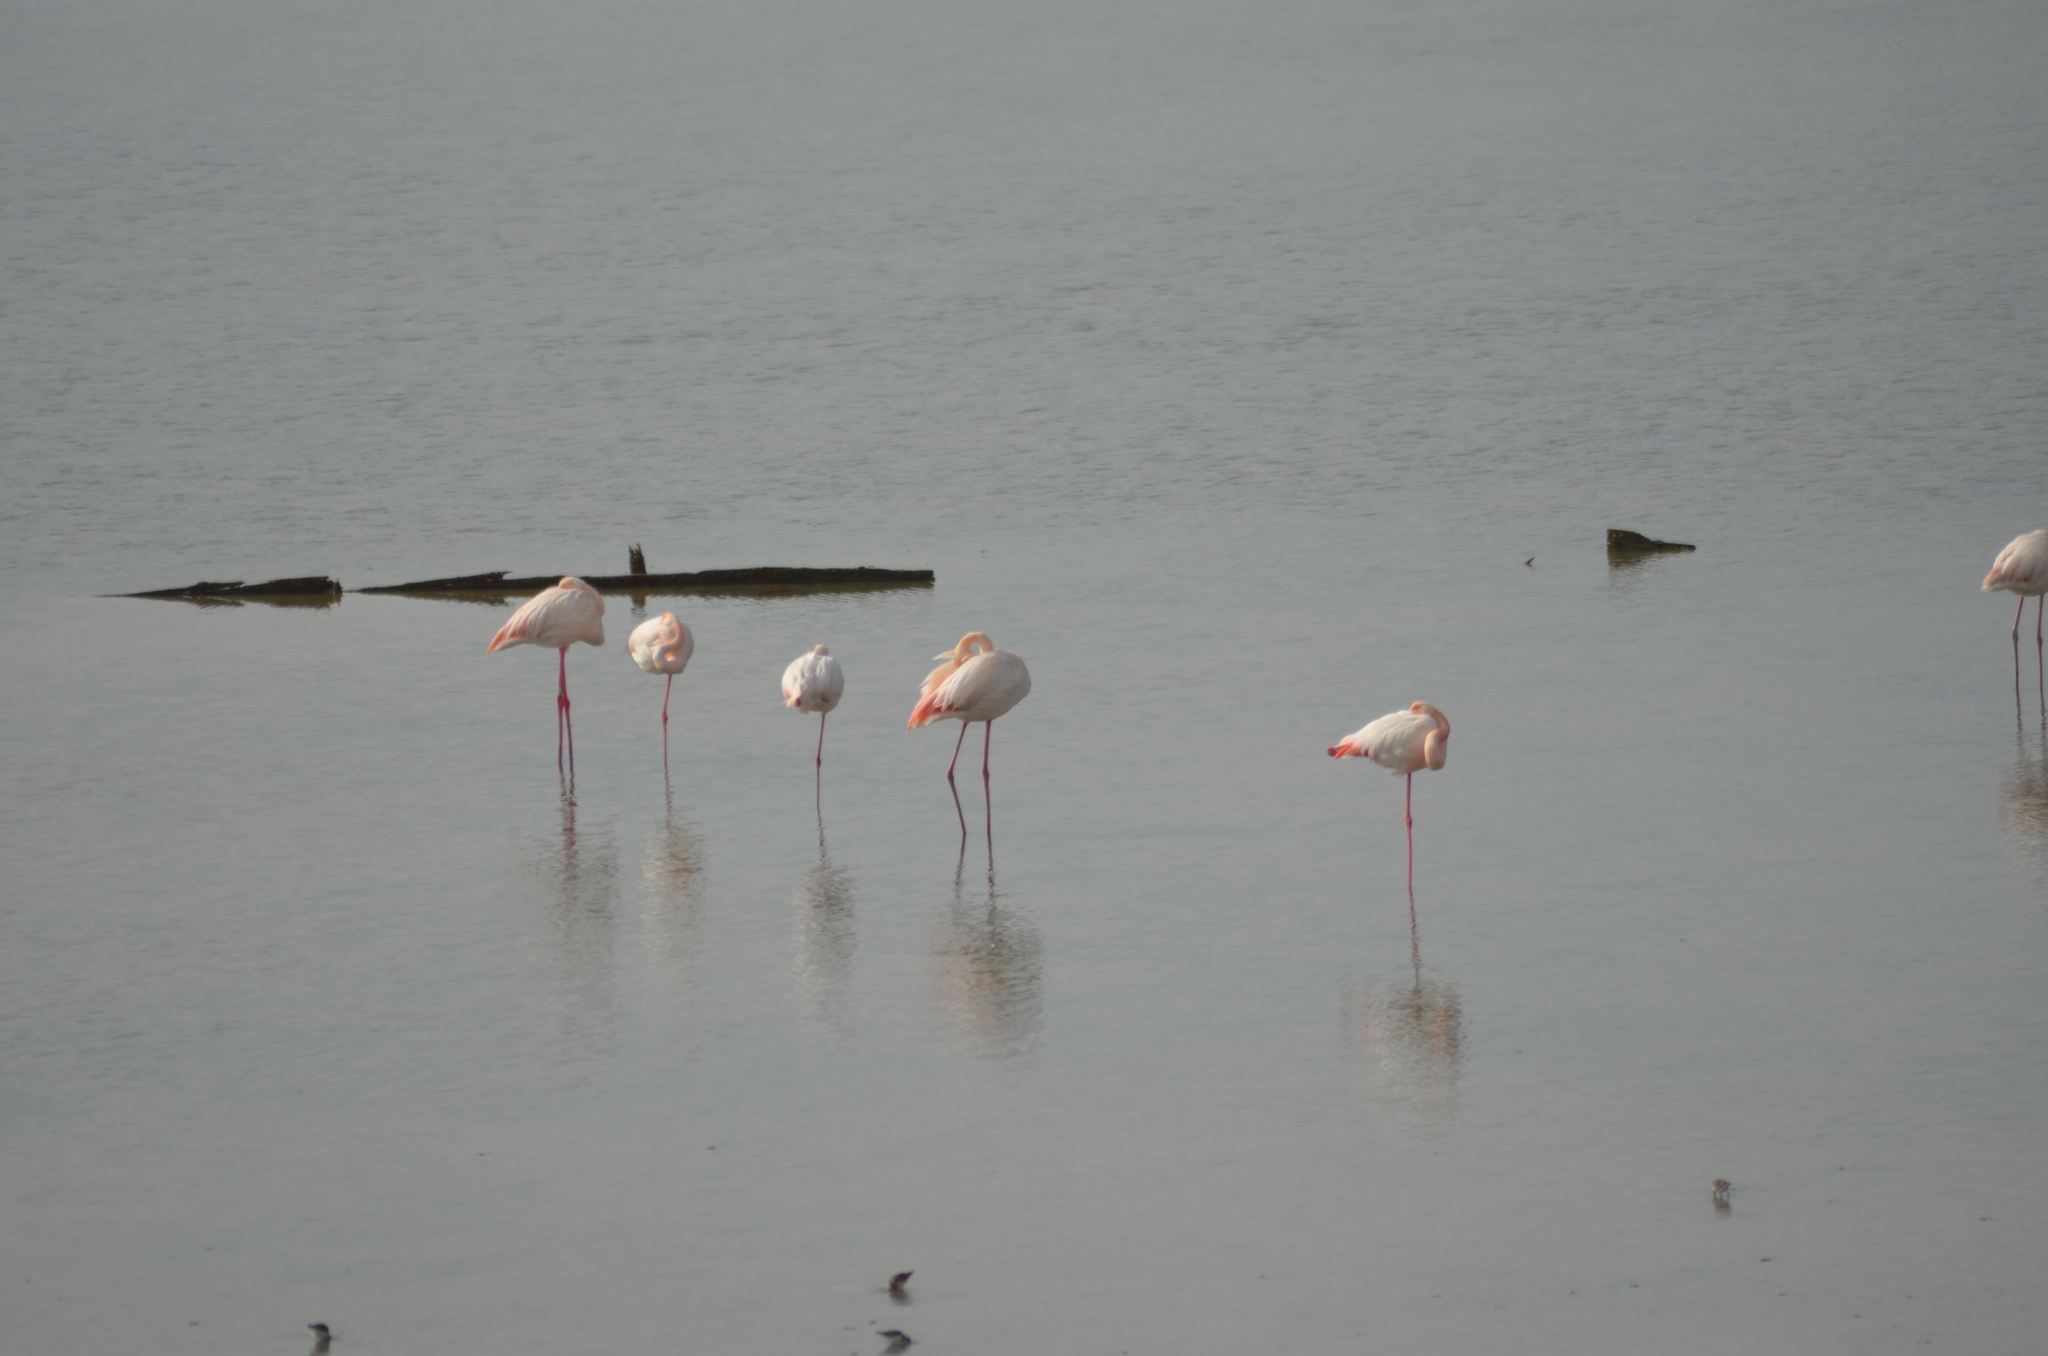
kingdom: Animalia
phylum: Chordata
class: Aves
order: Phoenicopteriformes
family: Phoenicopteridae
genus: Phoenicopterus
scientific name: Phoenicopterus roseus
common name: Greater flamingo
